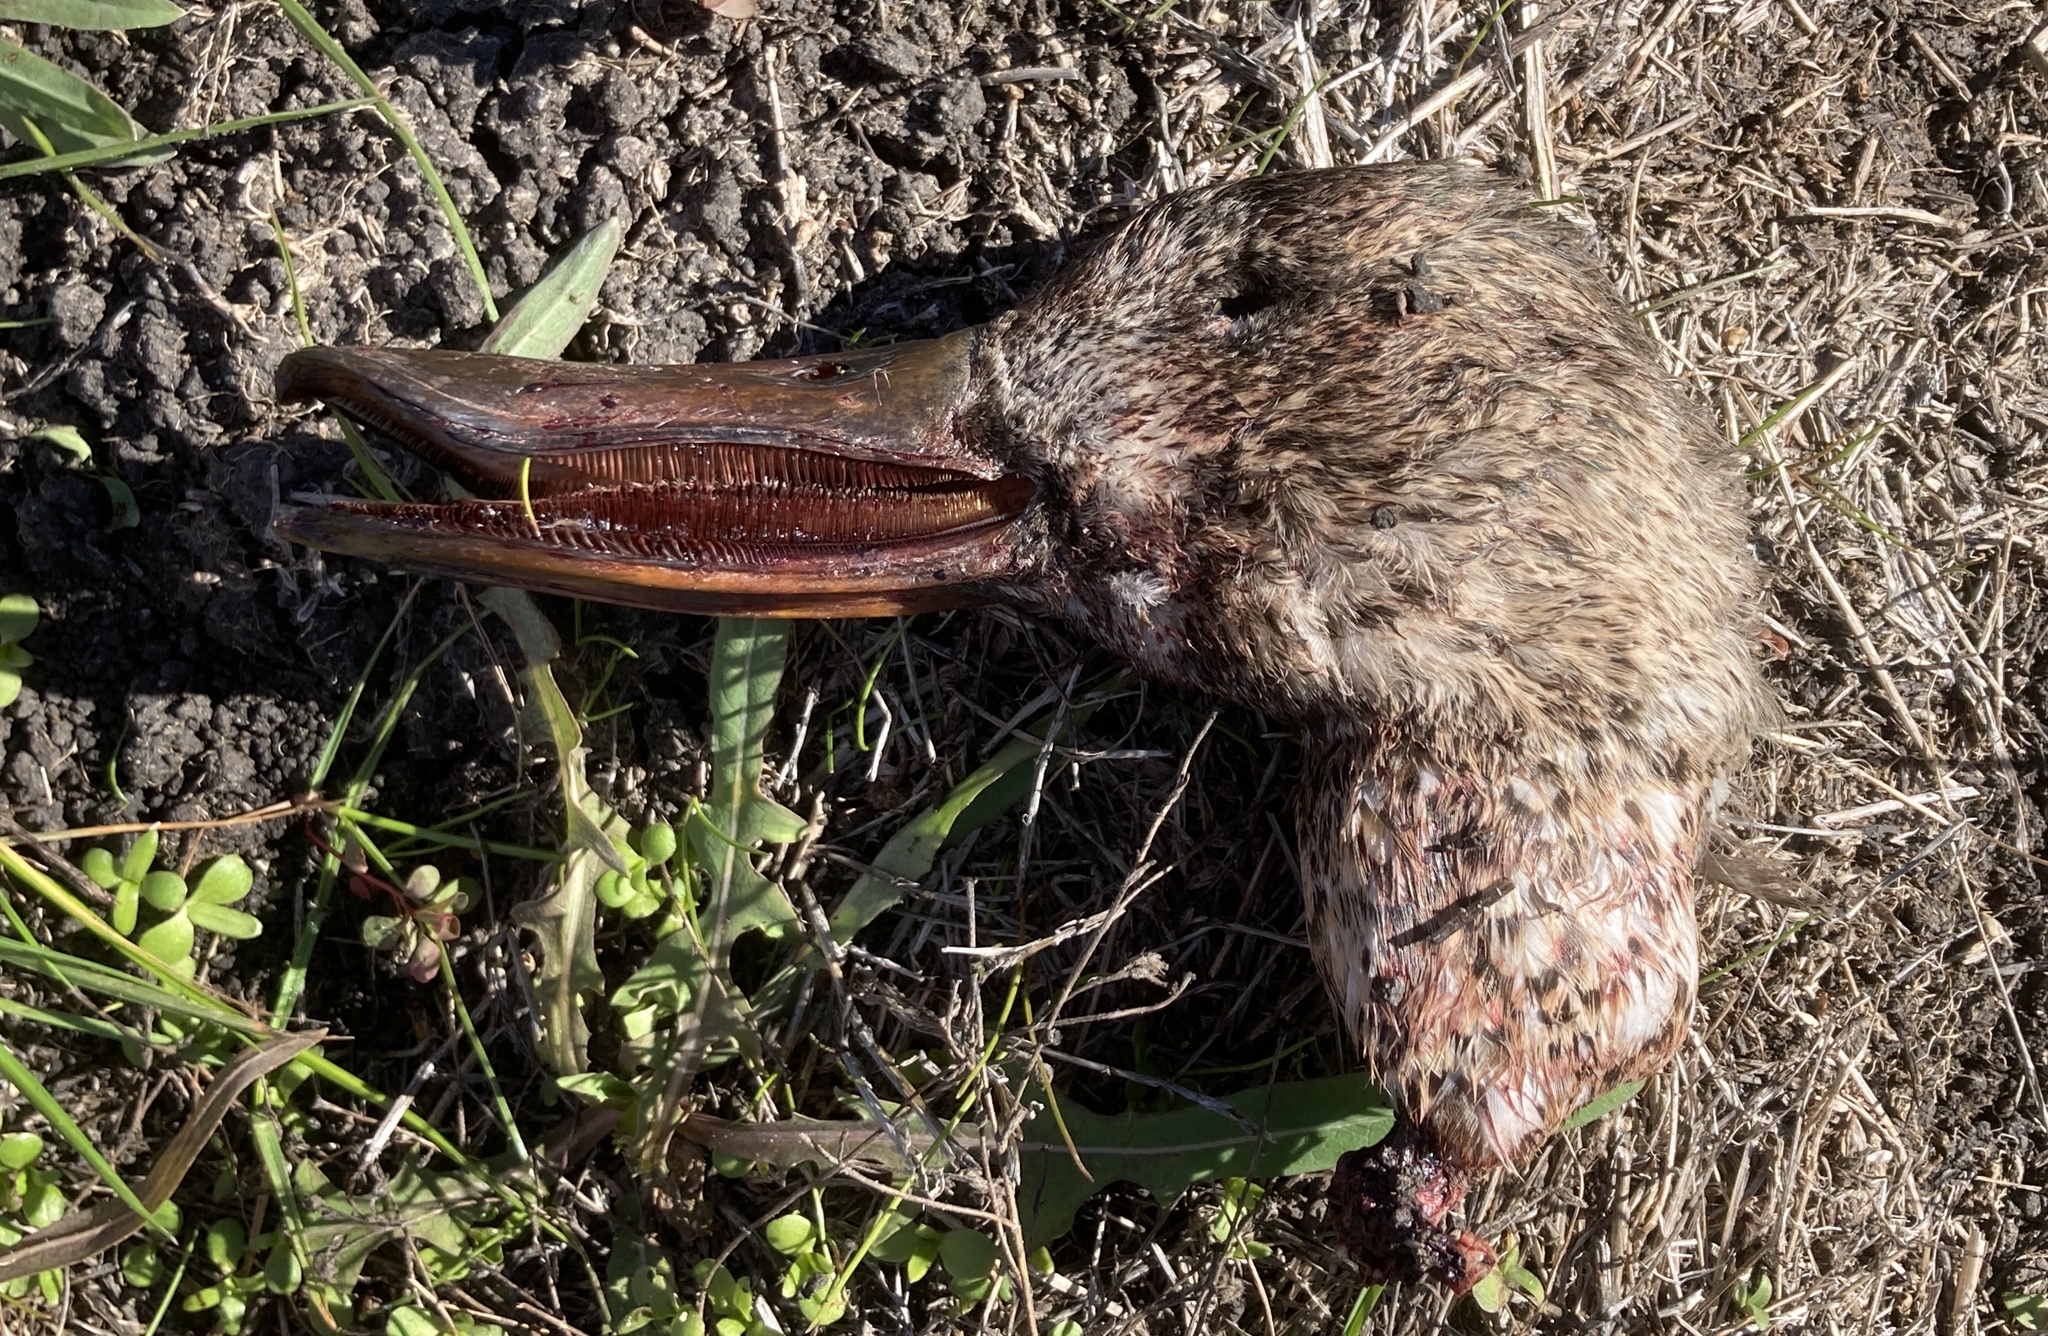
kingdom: Animalia
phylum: Chordata
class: Aves
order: Anseriformes
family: Anatidae
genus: Spatula
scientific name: Spatula clypeata
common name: Northern shoveler
